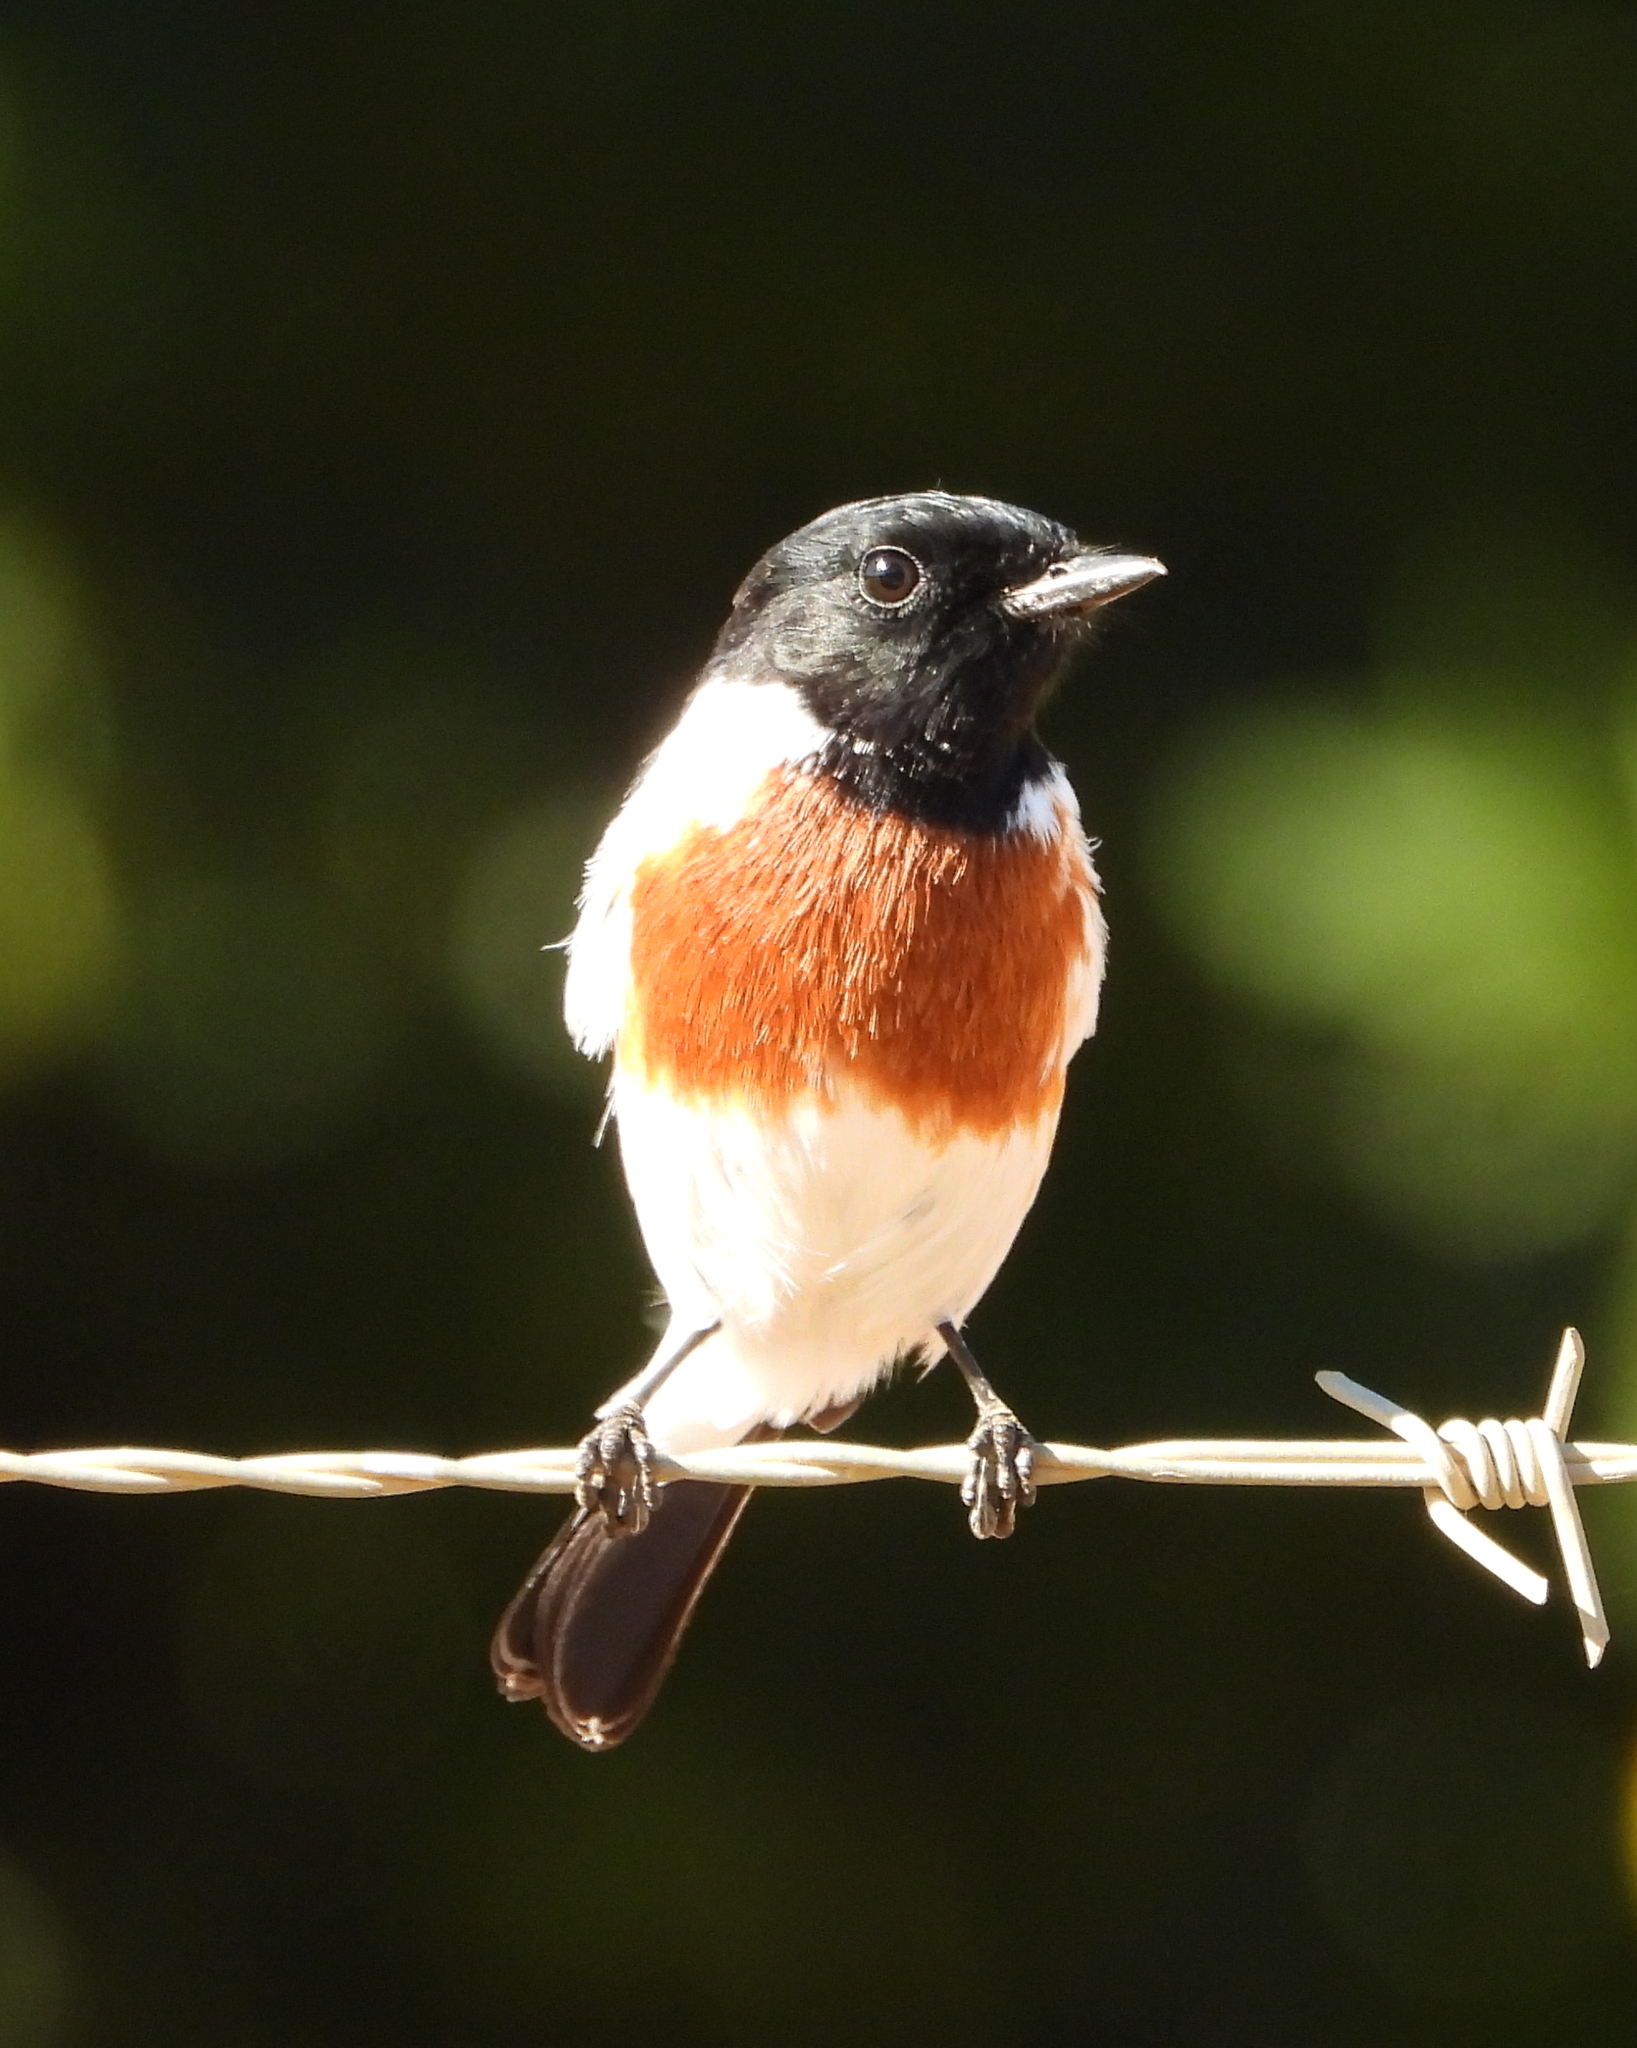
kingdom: Animalia
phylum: Chordata
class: Aves
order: Passeriformes
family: Muscicapidae
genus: Saxicola
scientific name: Saxicola torquatus
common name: African stonechat
